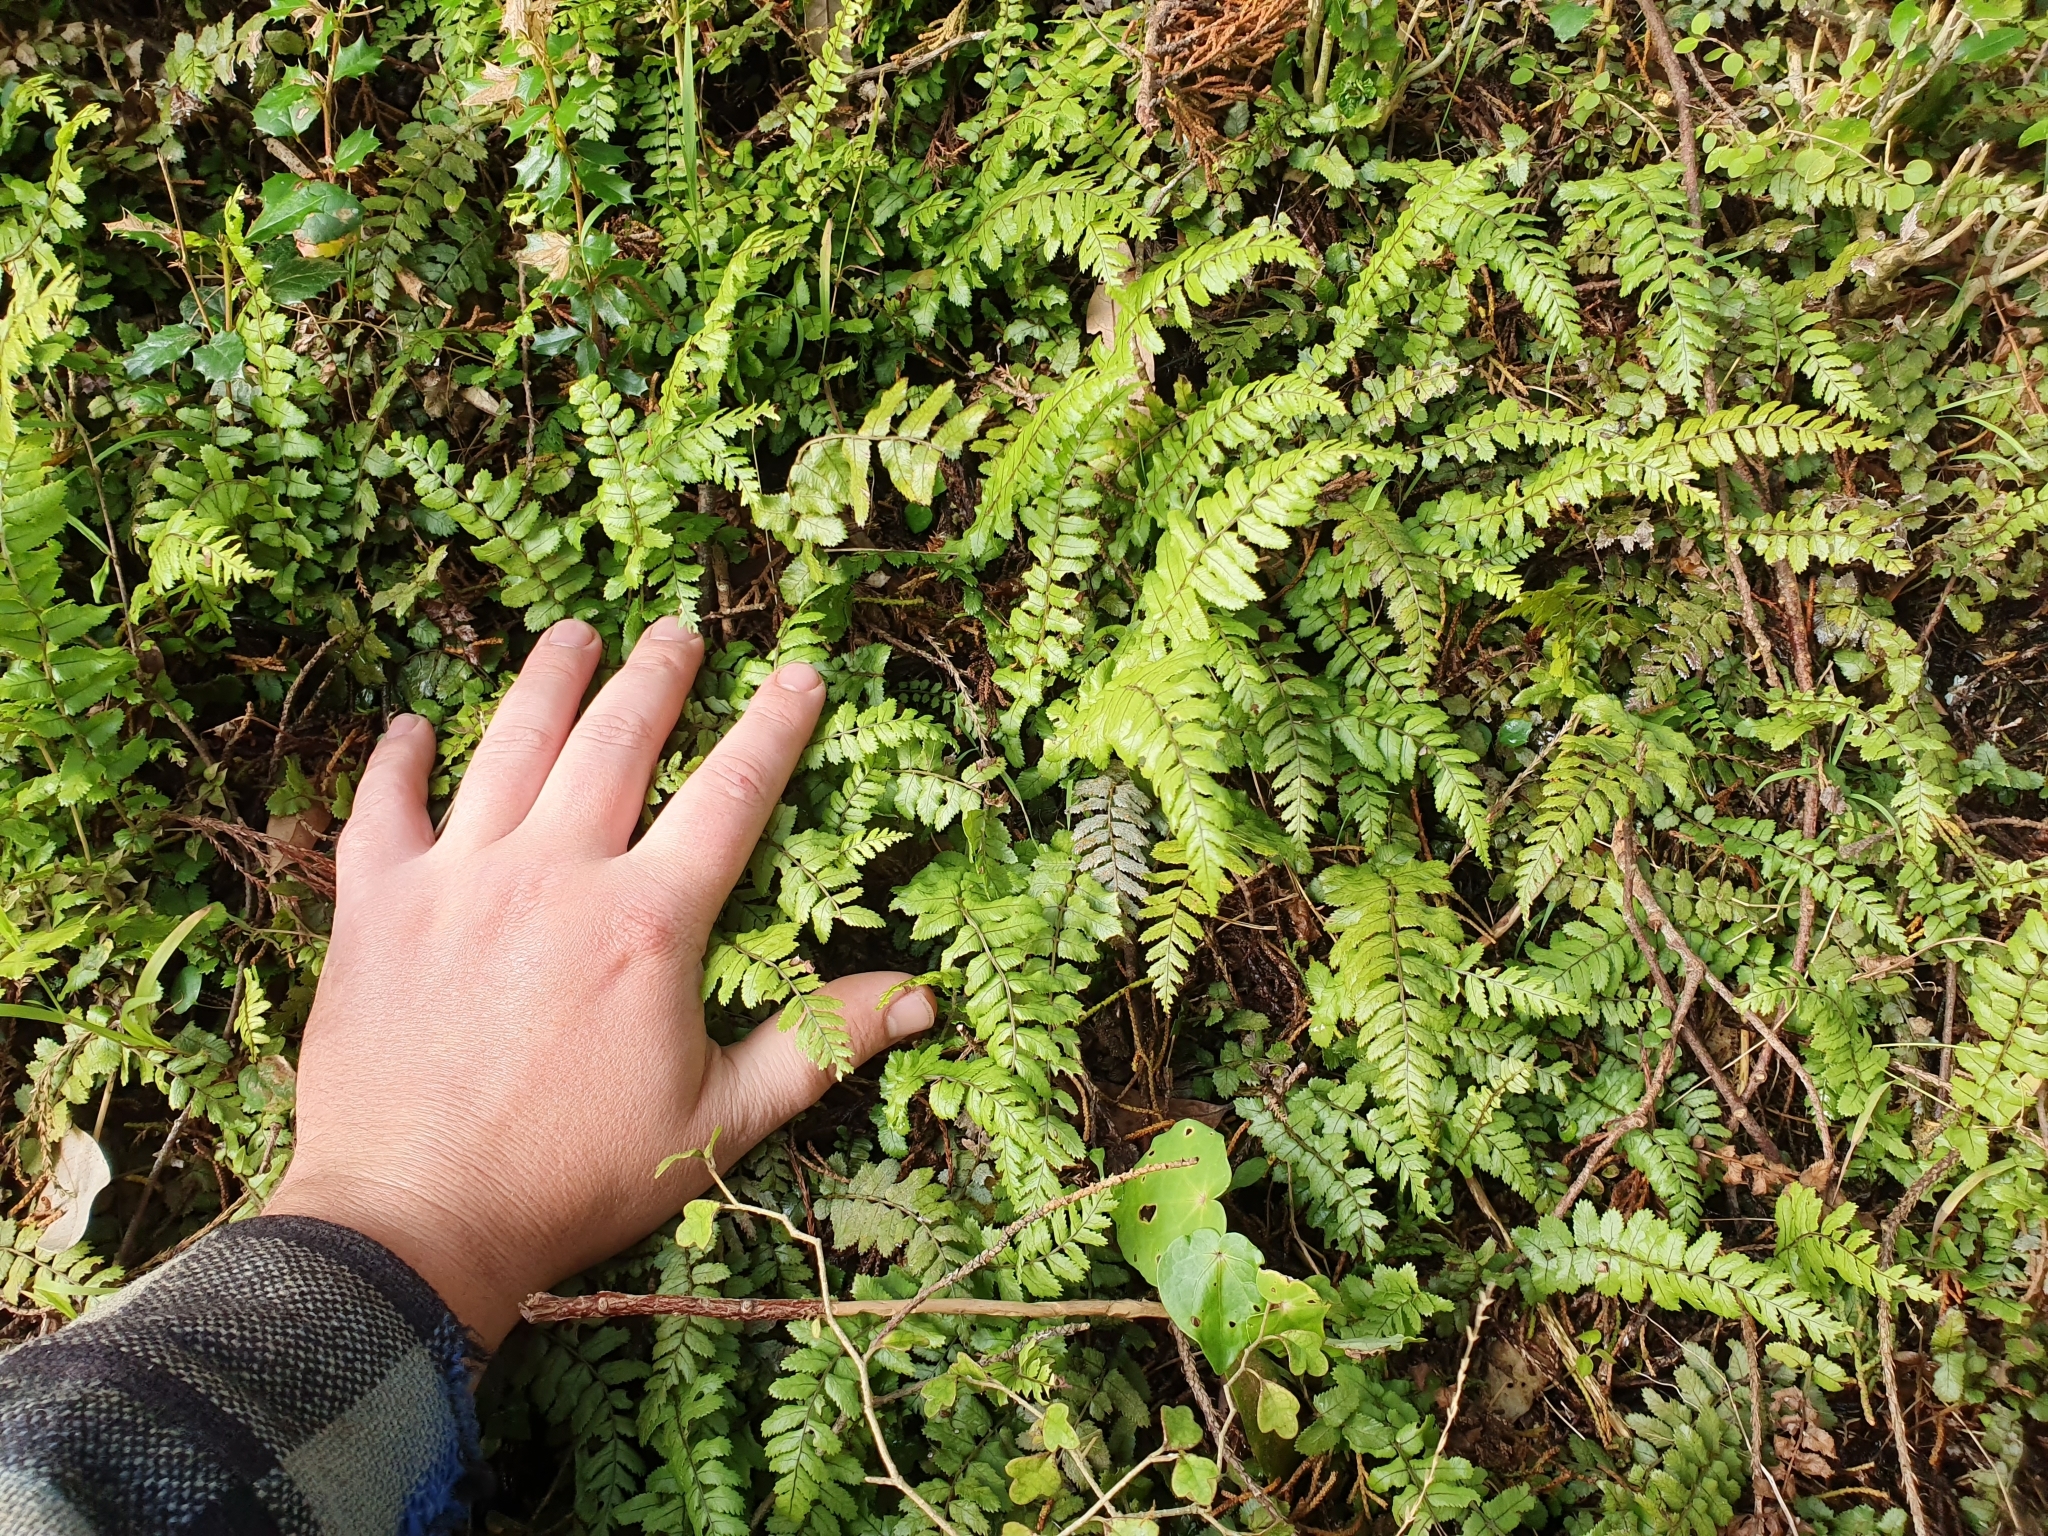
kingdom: Plantae
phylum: Tracheophyta
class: Polypodiopsida
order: Polypodiales
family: Blechnaceae
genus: Icarus
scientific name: Icarus filiformis
